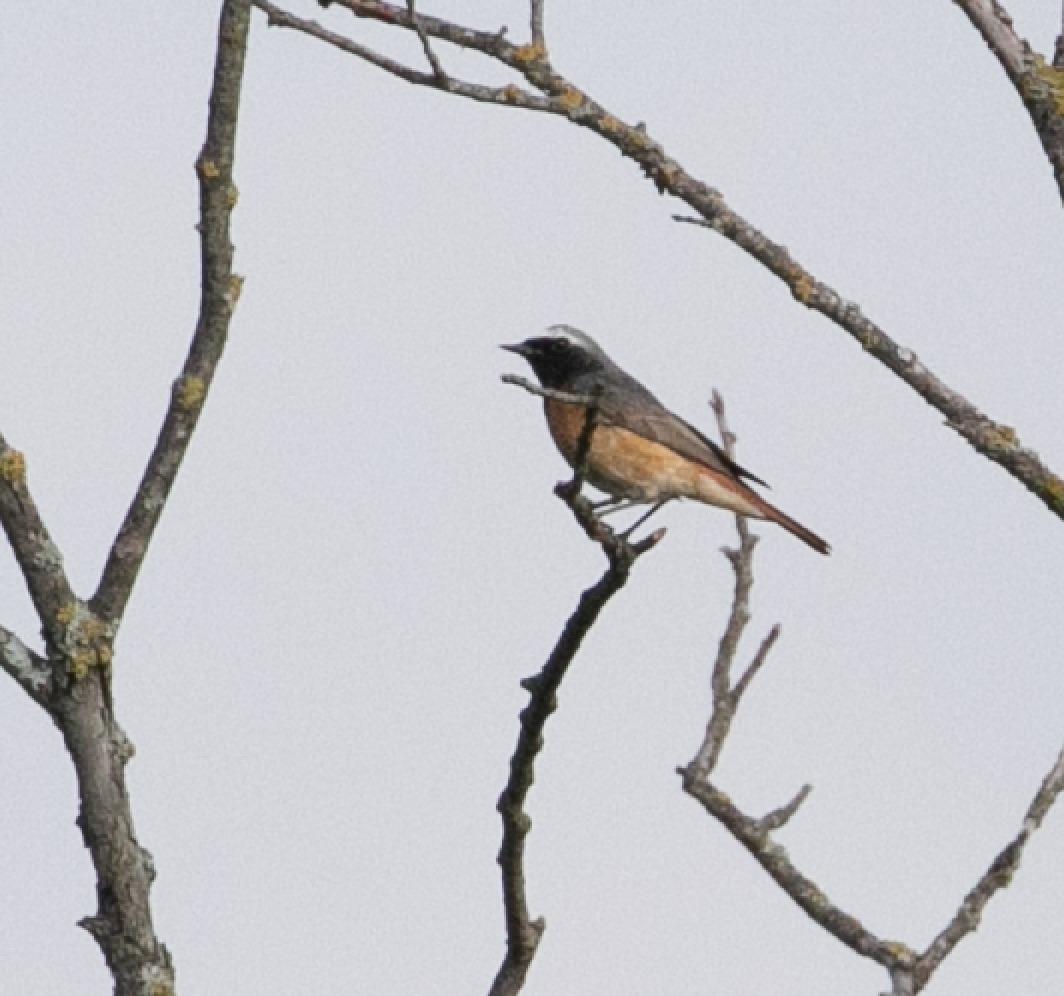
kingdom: Animalia
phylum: Chordata
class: Aves
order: Passeriformes
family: Muscicapidae
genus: Phoenicurus
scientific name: Phoenicurus phoenicurus
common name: Common redstart
